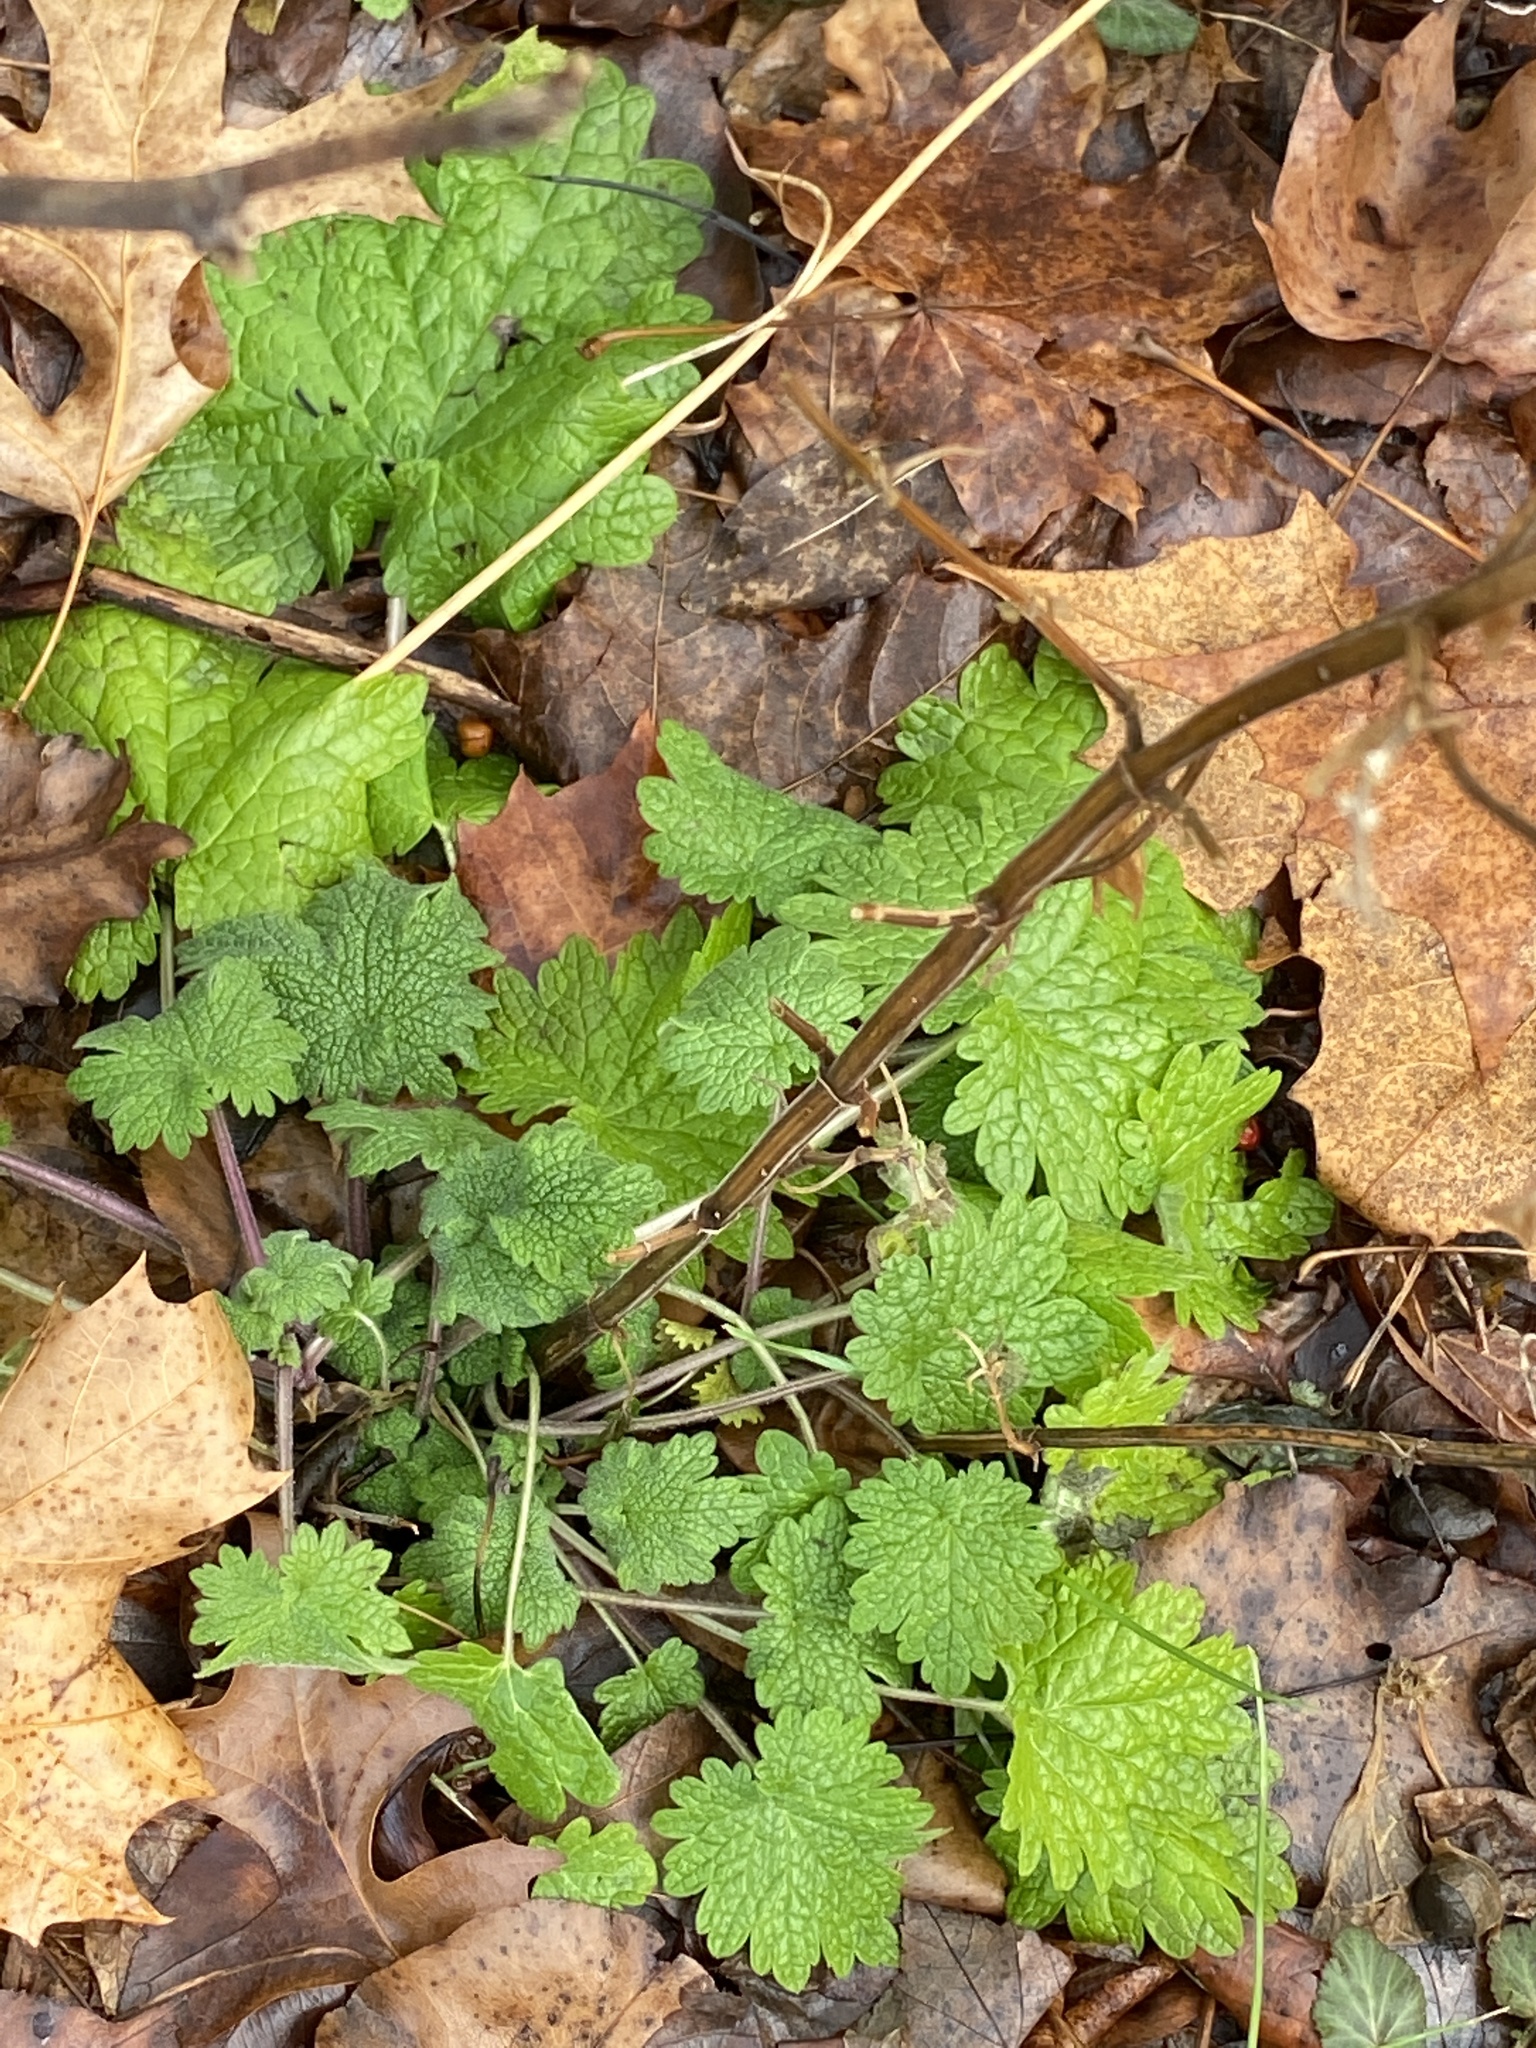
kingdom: Plantae
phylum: Tracheophyta
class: Magnoliopsida
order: Lamiales
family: Lamiaceae
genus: Leonurus
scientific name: Leonurus cardiaca
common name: Motherwort
